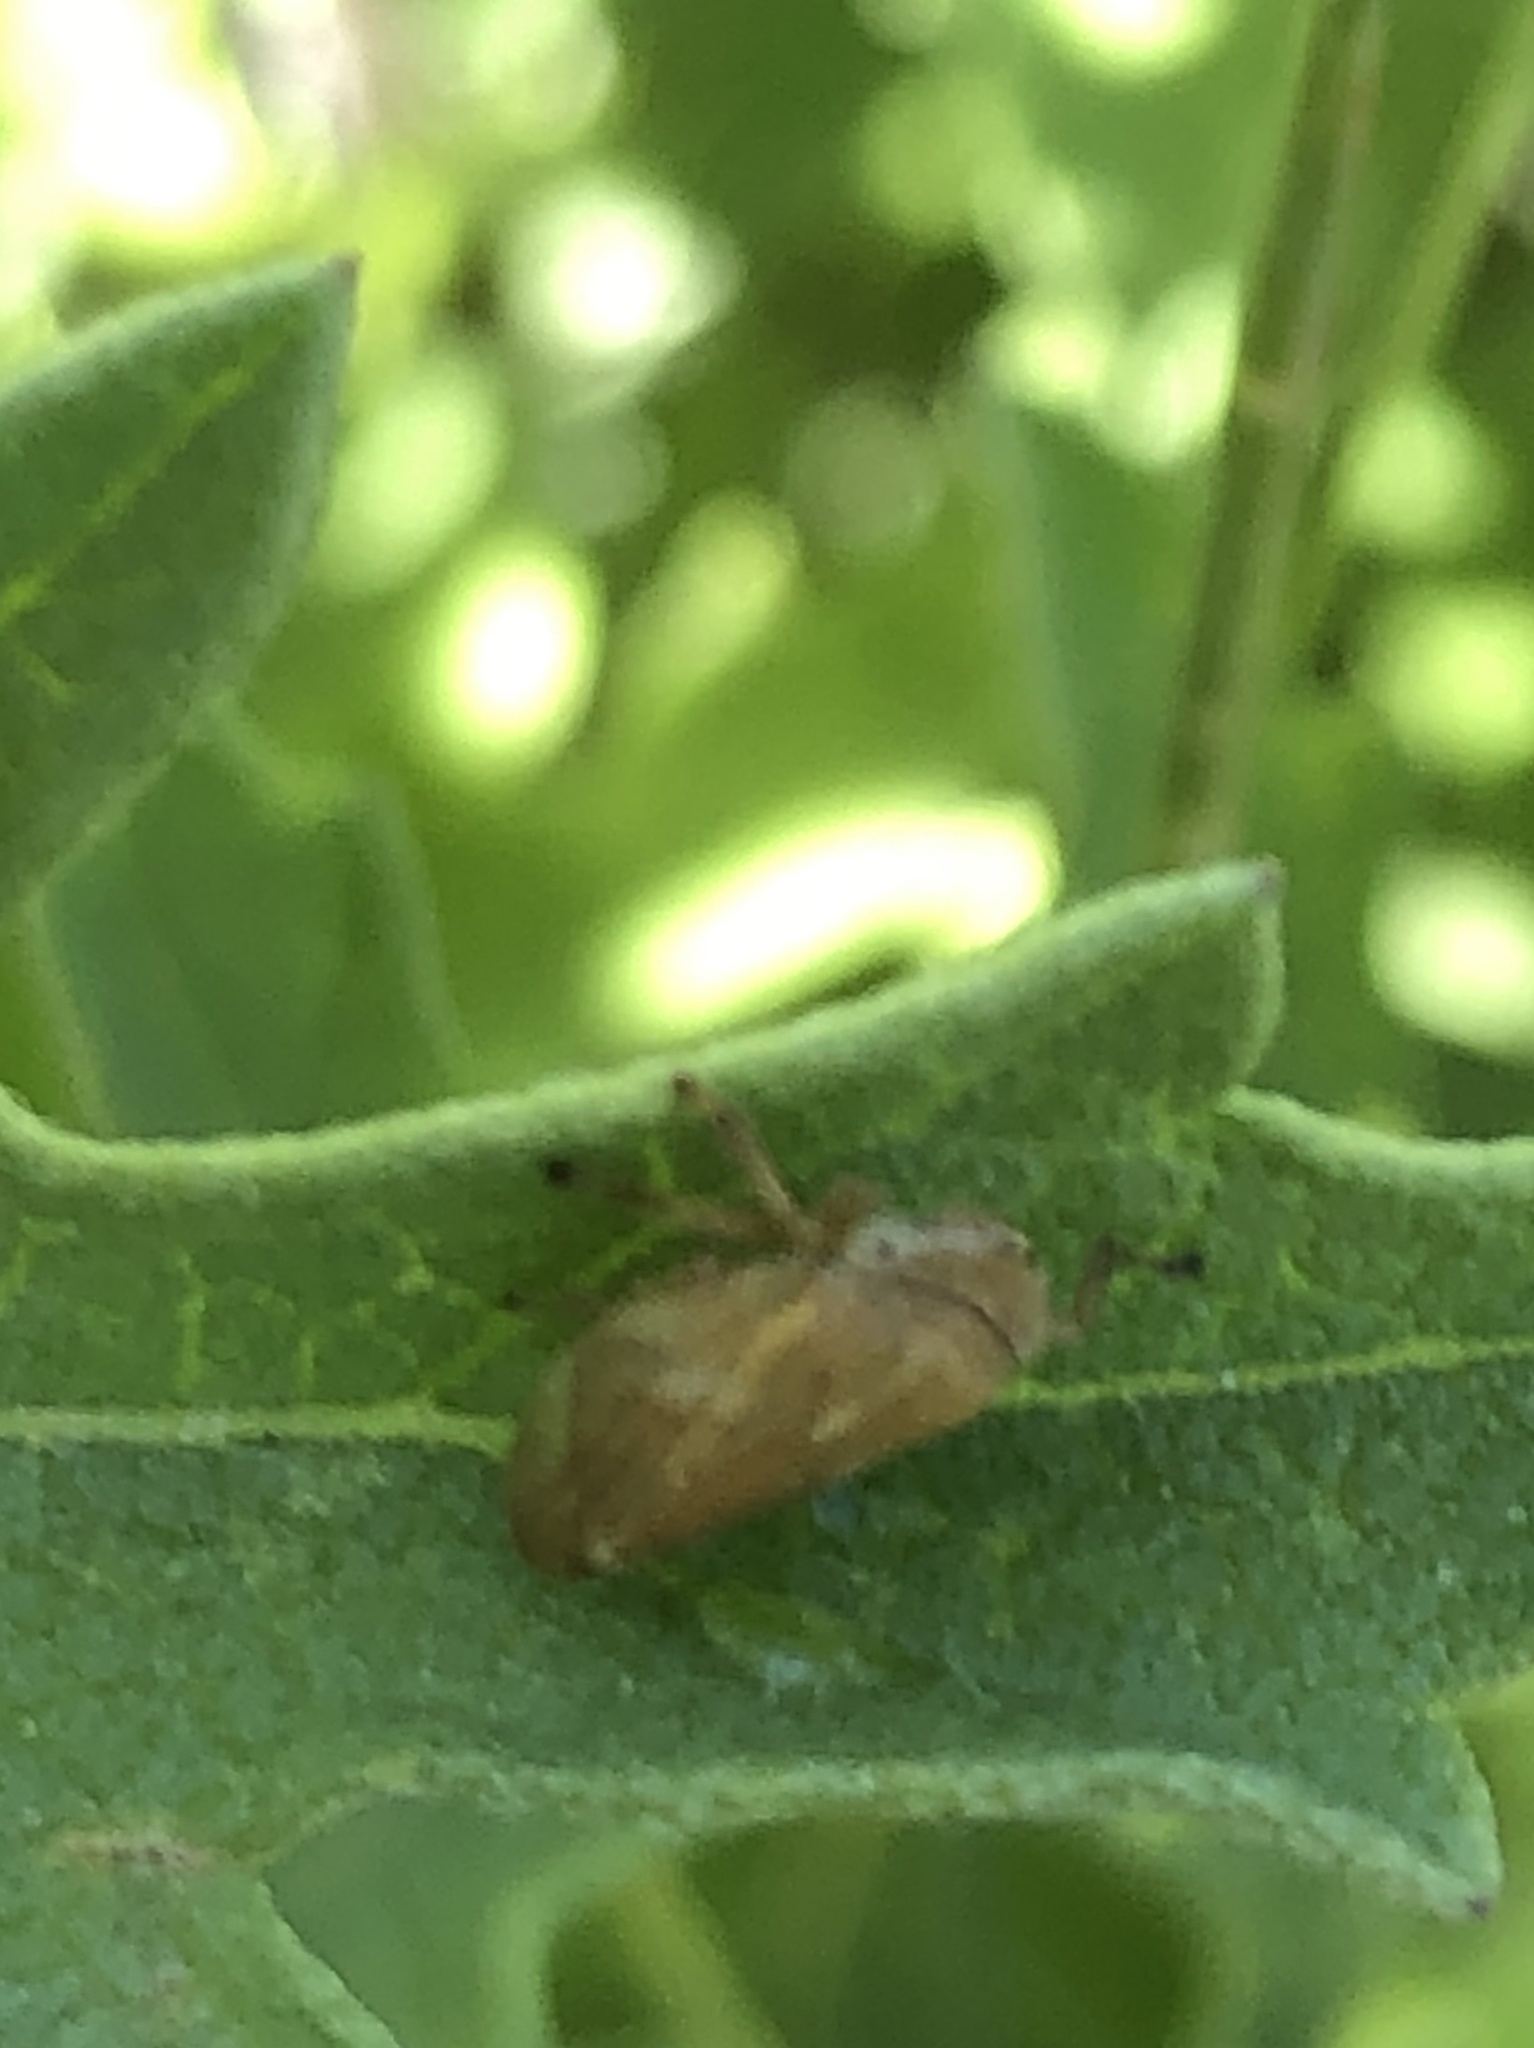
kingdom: Animalia
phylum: Arthropoda
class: Insecta
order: Hemiptera
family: Aphrophoridae
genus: Philaenus
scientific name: Philaenus spumarius
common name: Meadow spittlebug
